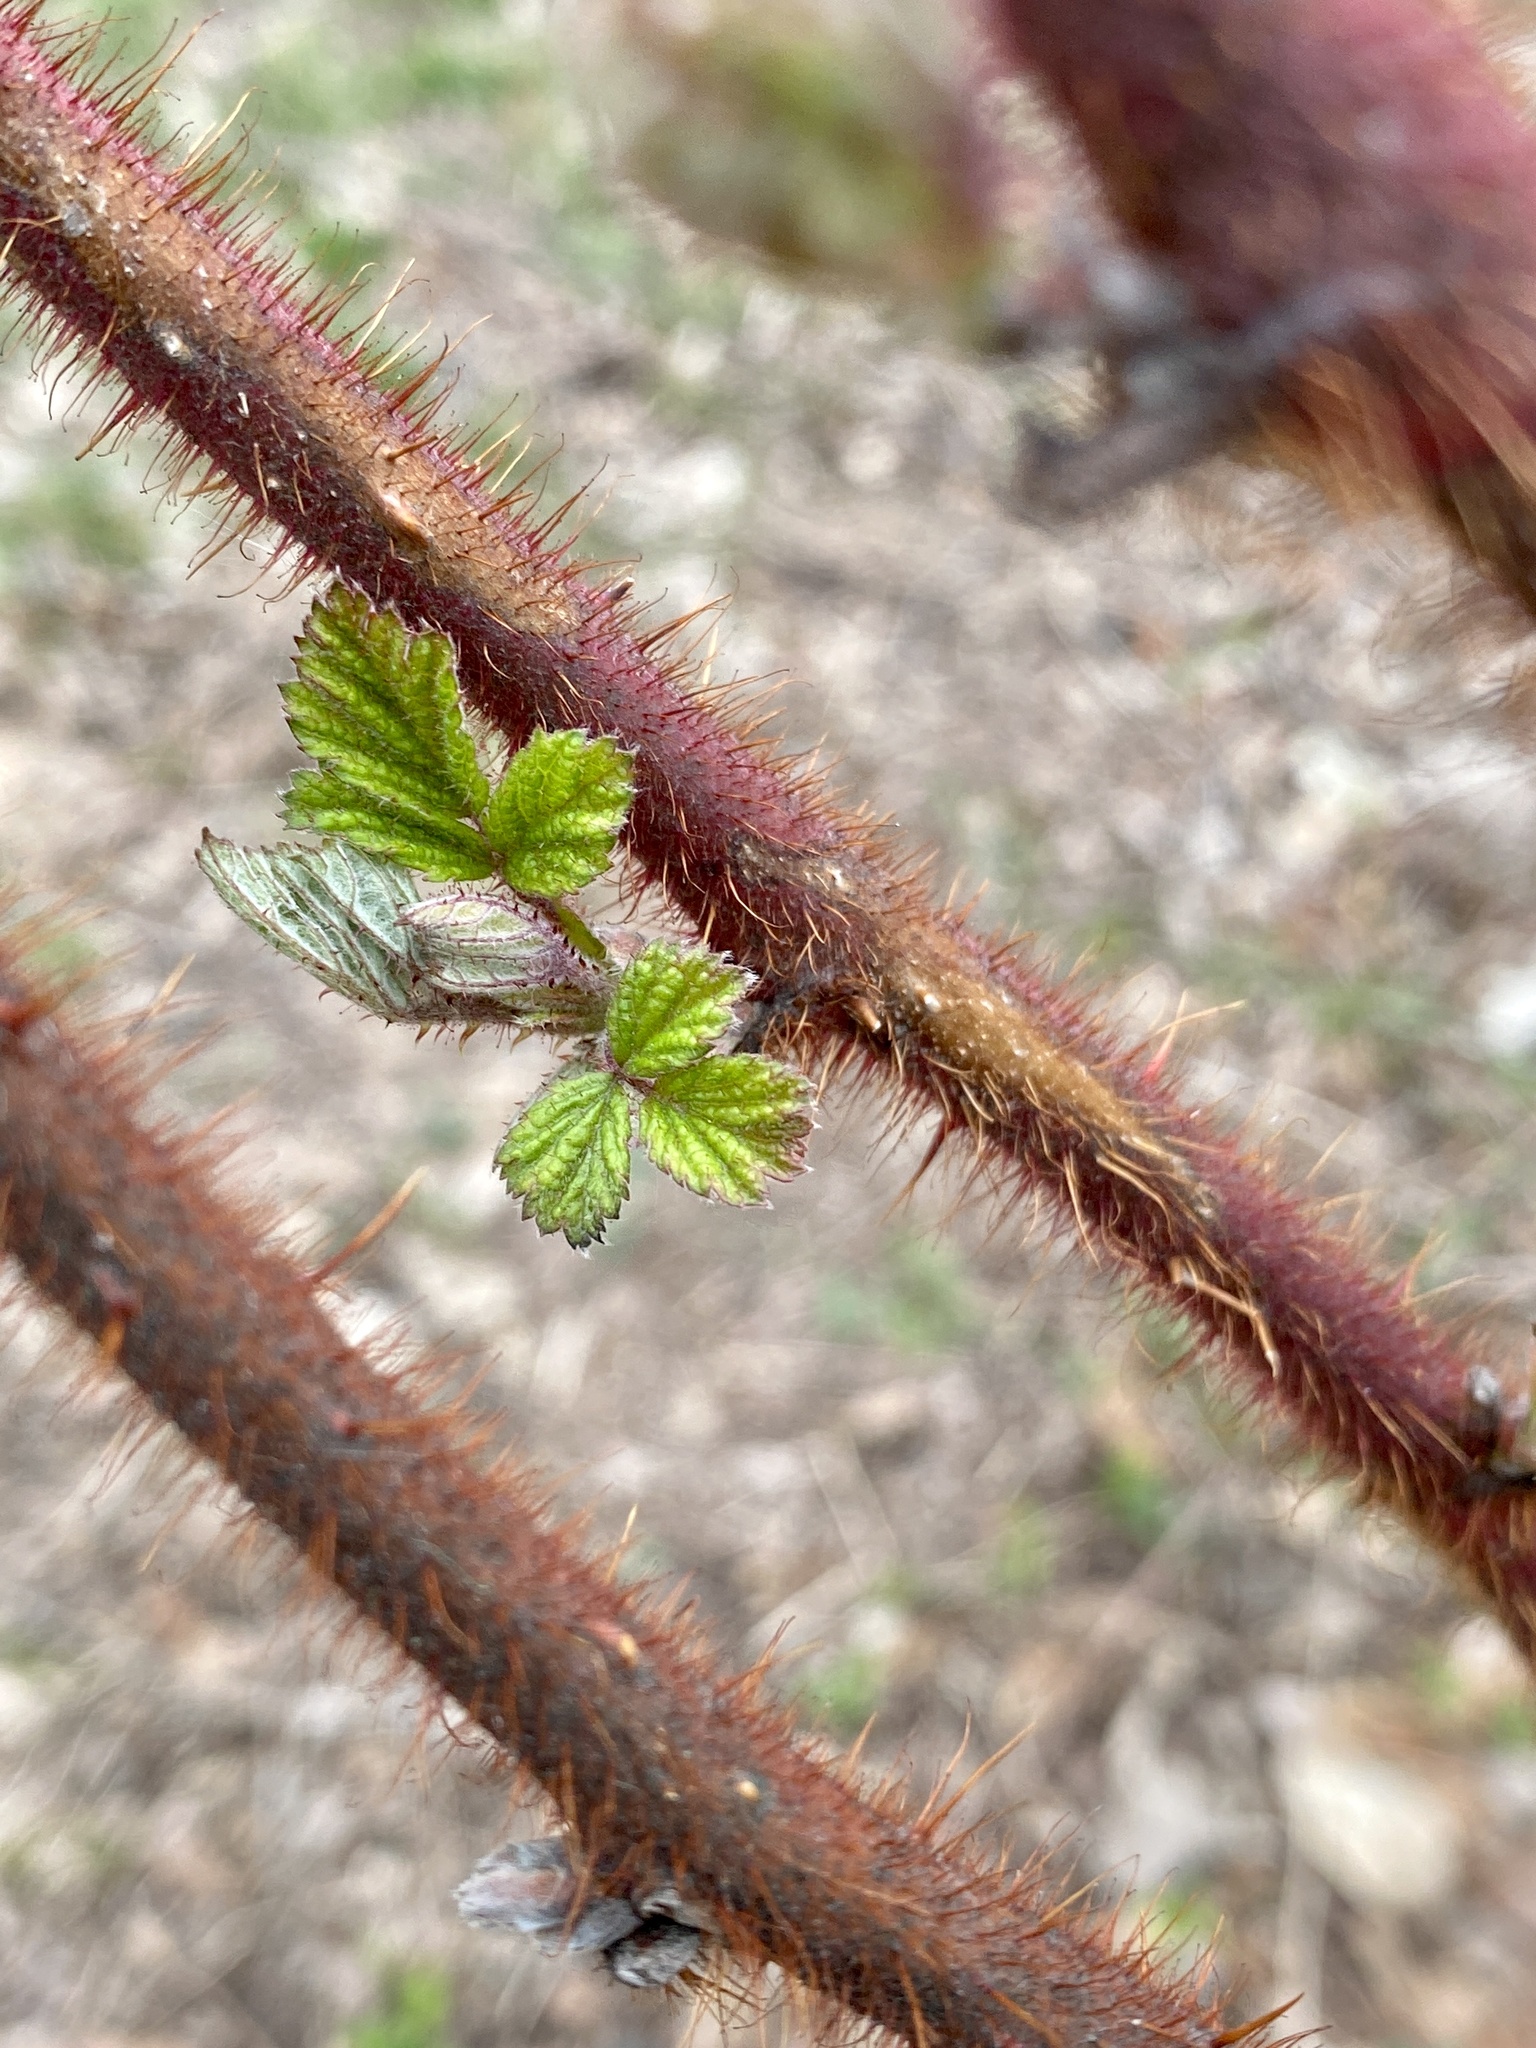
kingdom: Plantae
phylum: Tracheophyta
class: Magnoliopsida
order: Rosales
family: Rosaceae
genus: Rubus
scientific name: Rubus phoenicolasius
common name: Japanese wineberry
